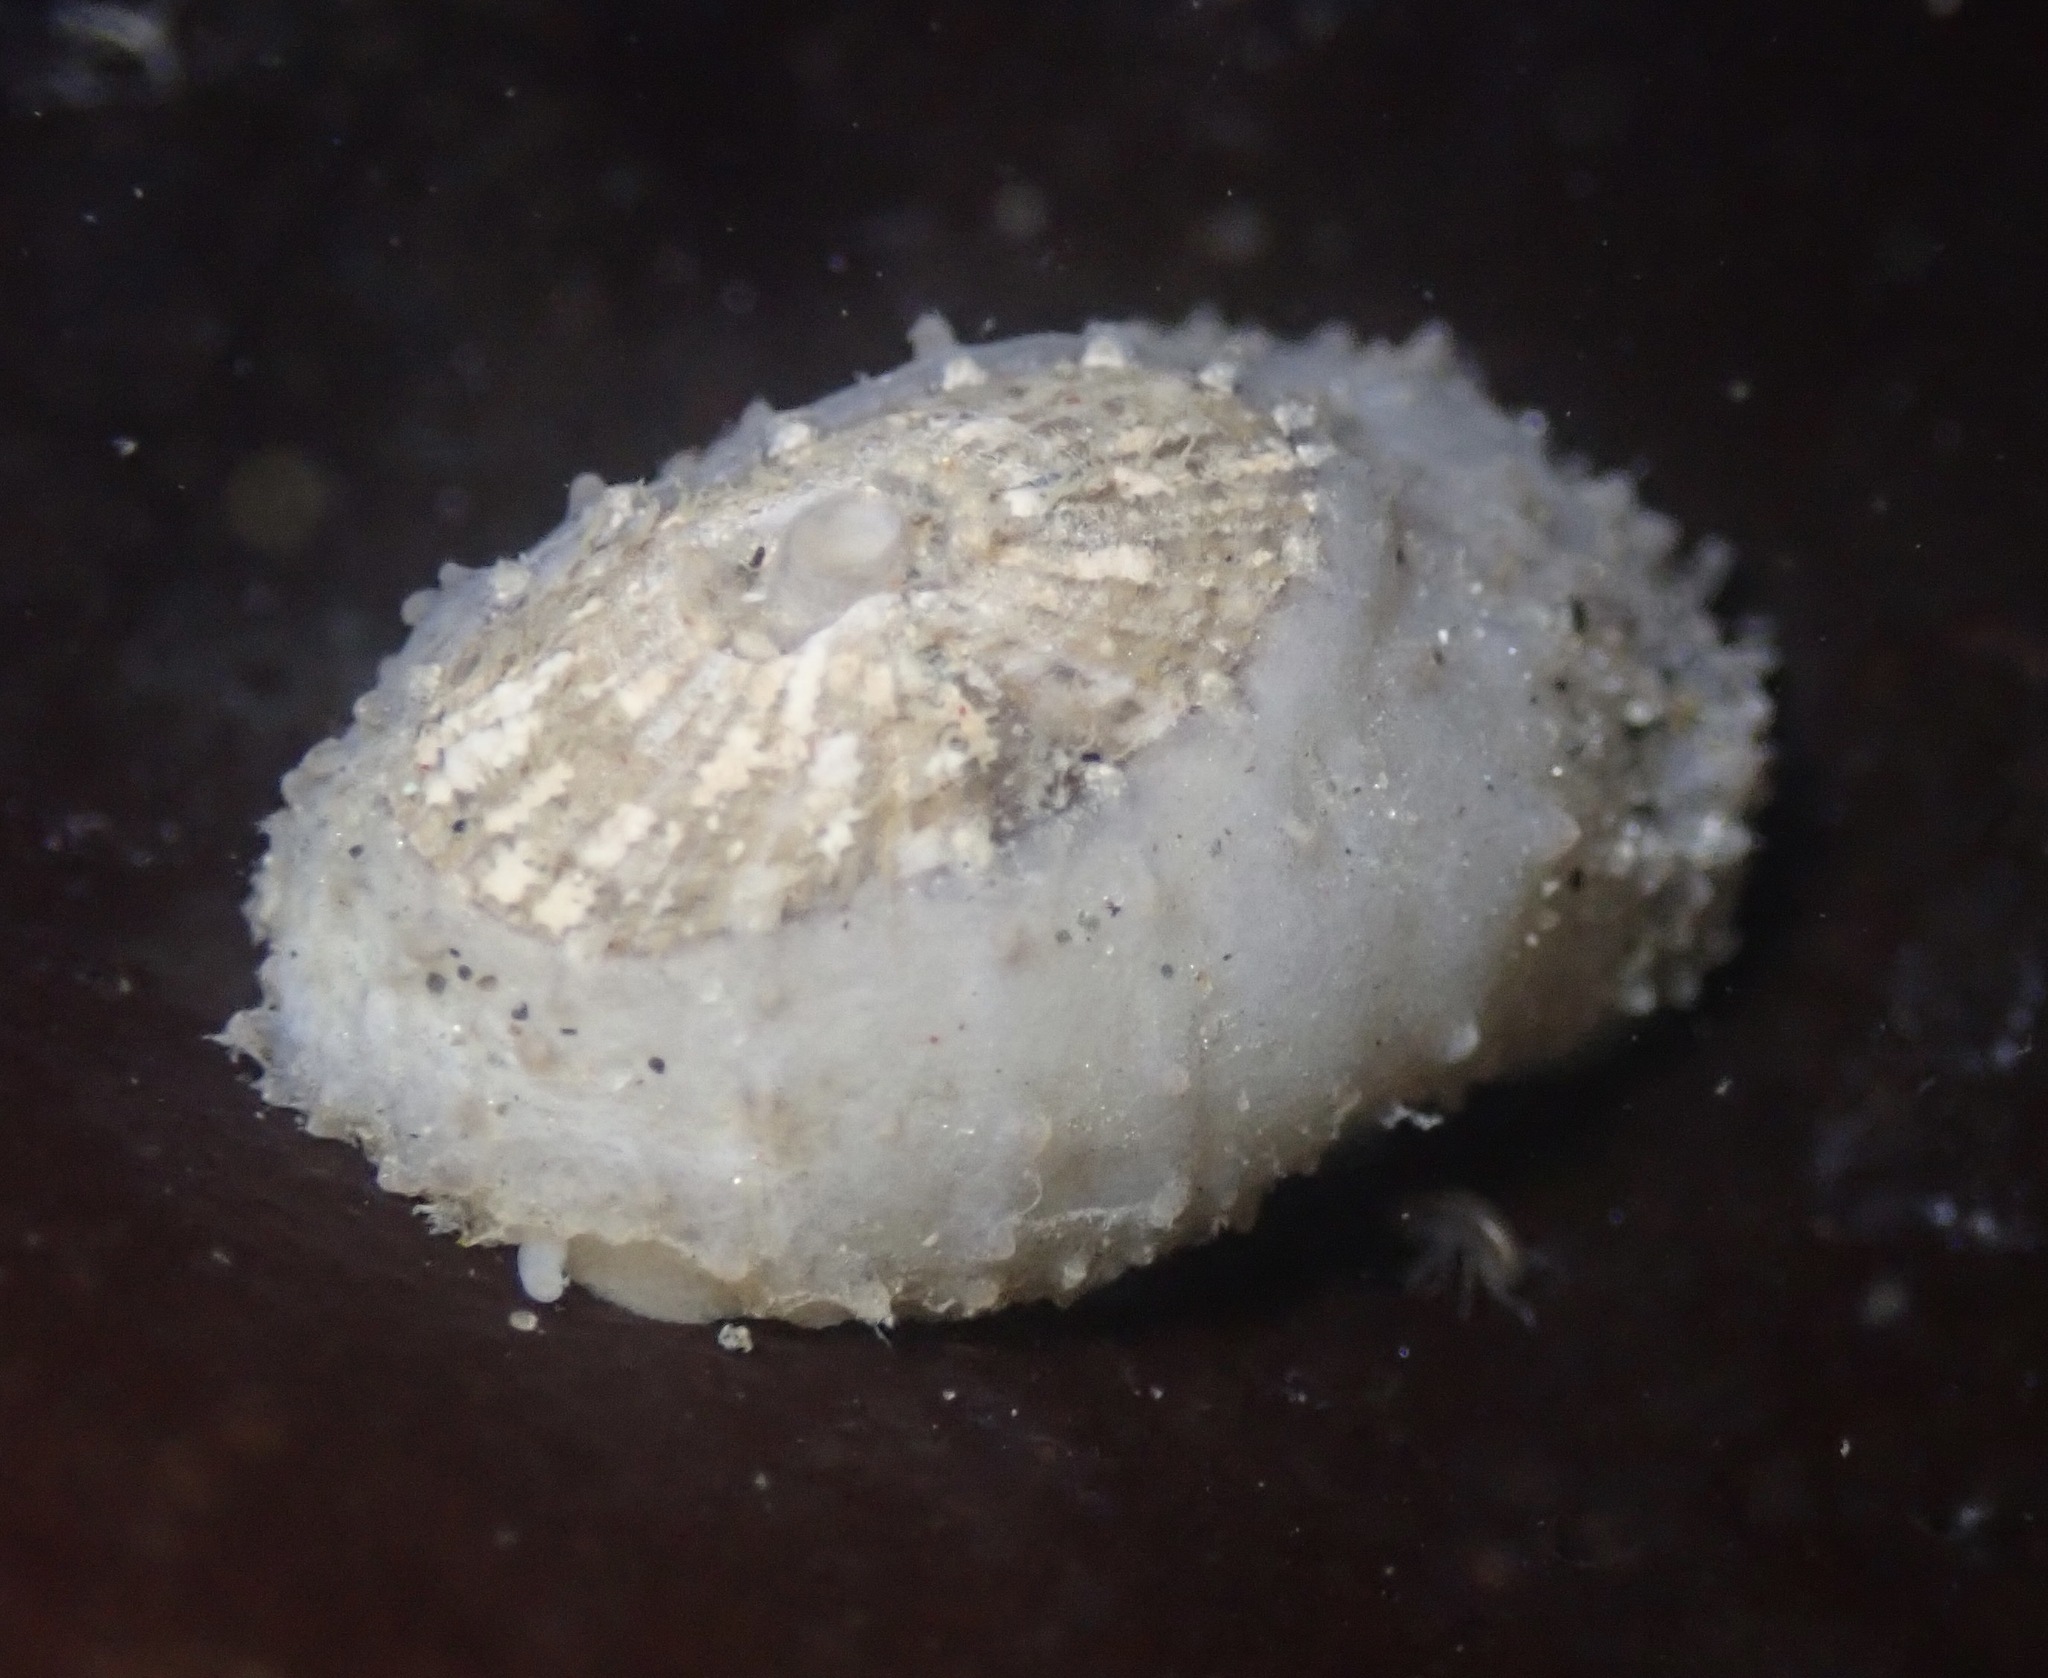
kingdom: Animalia
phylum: Mollusca
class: Gastropoda
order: Lepetellida
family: Fissurellidae
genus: Fissurellidea
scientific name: Fissurellidea bimaculata
